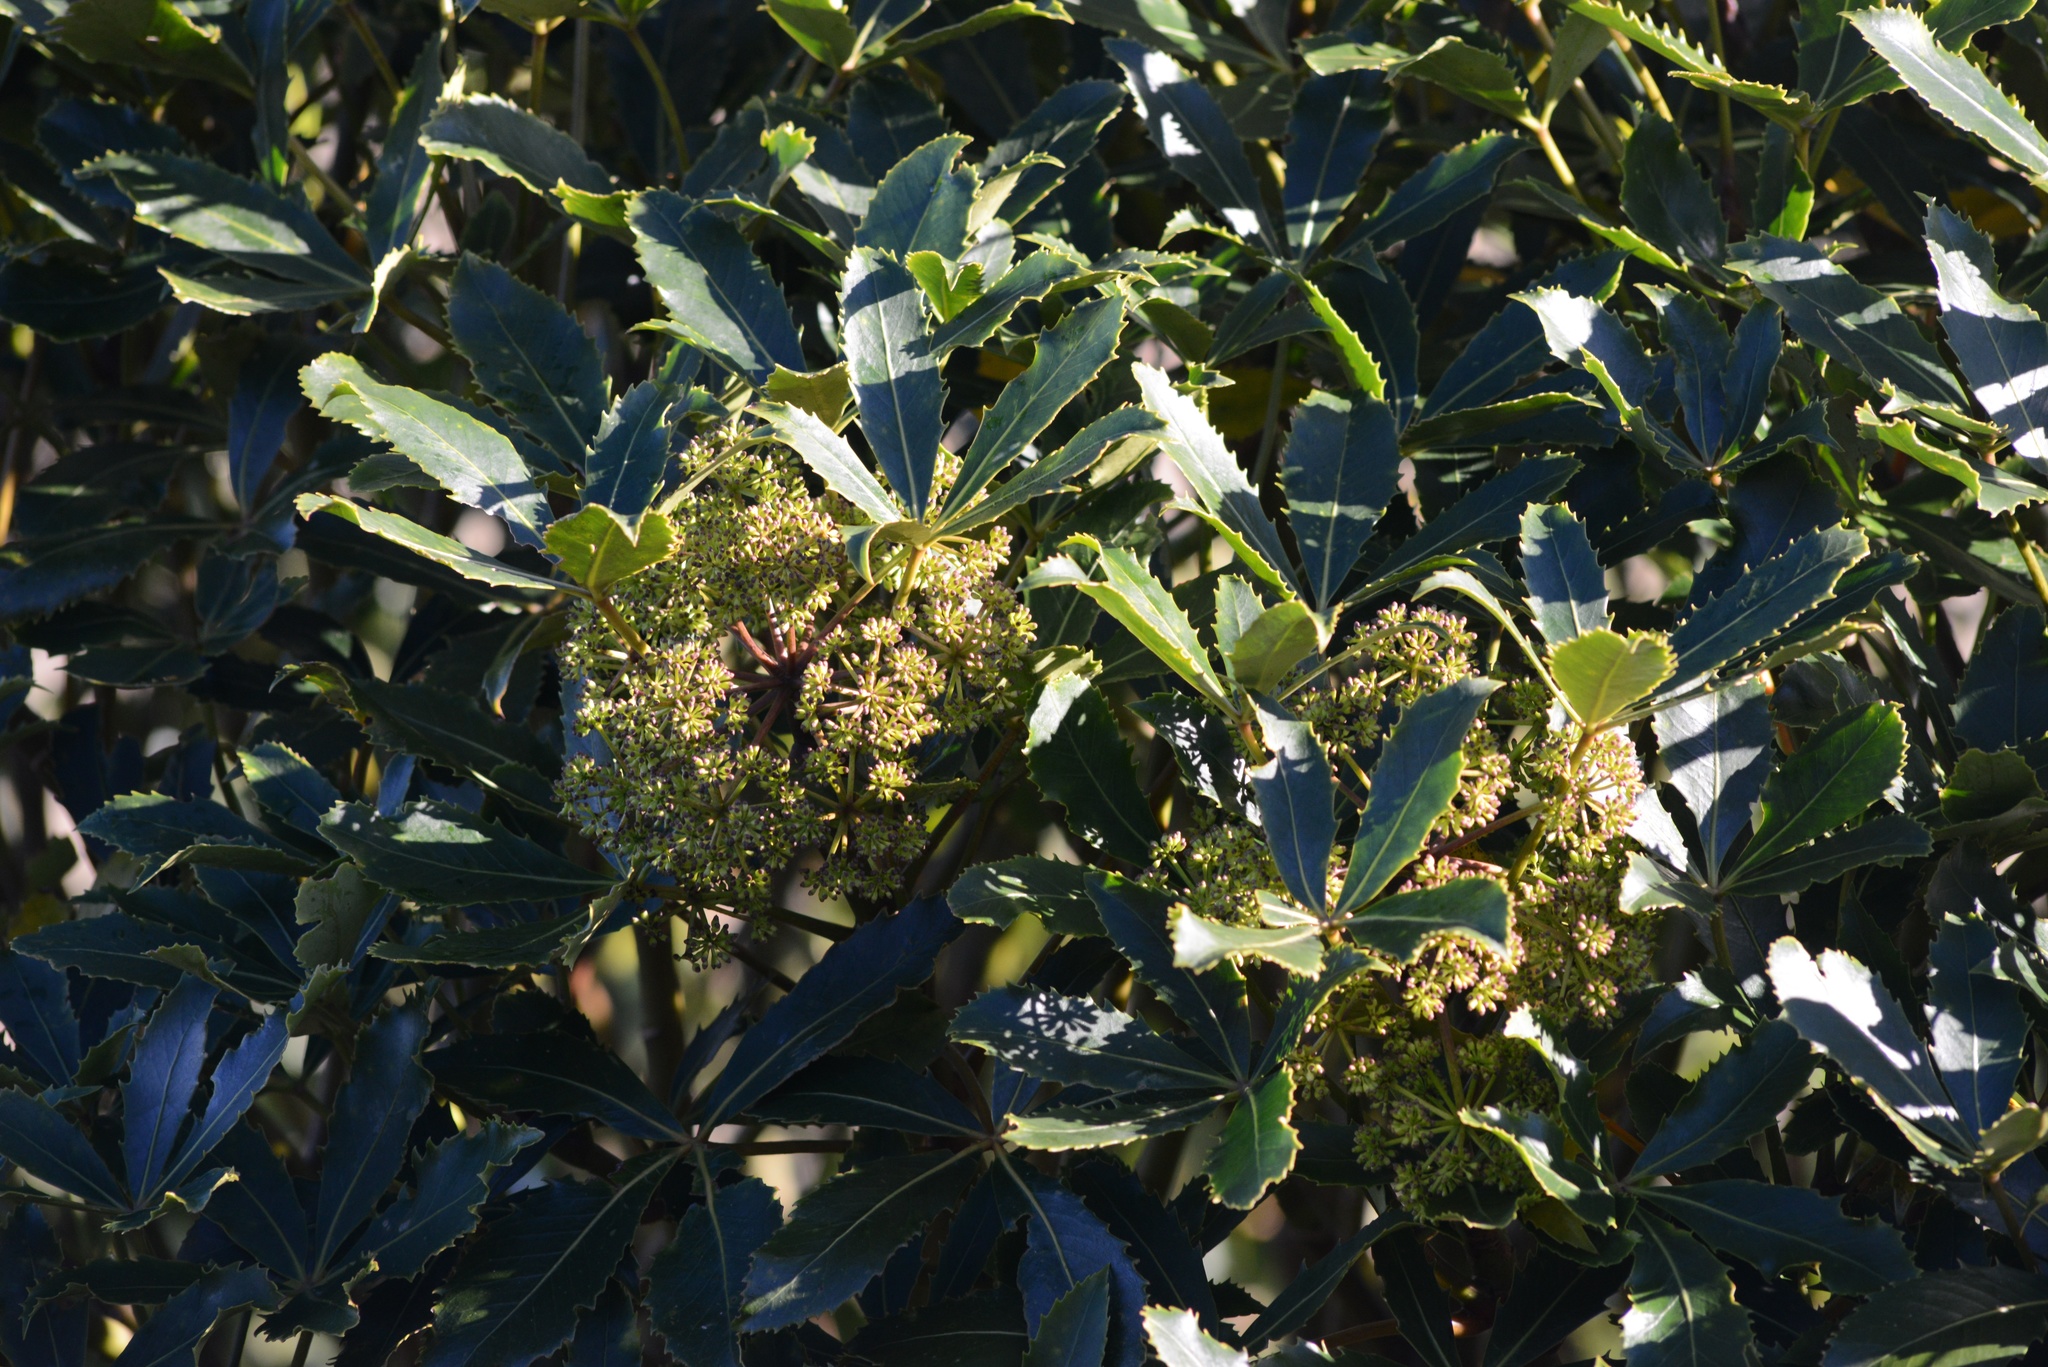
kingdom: Plantae
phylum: Tracheophyta
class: Magnoliopsida
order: Apiales
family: Araliaceae
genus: Neopanax
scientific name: Neopanax colensoi
